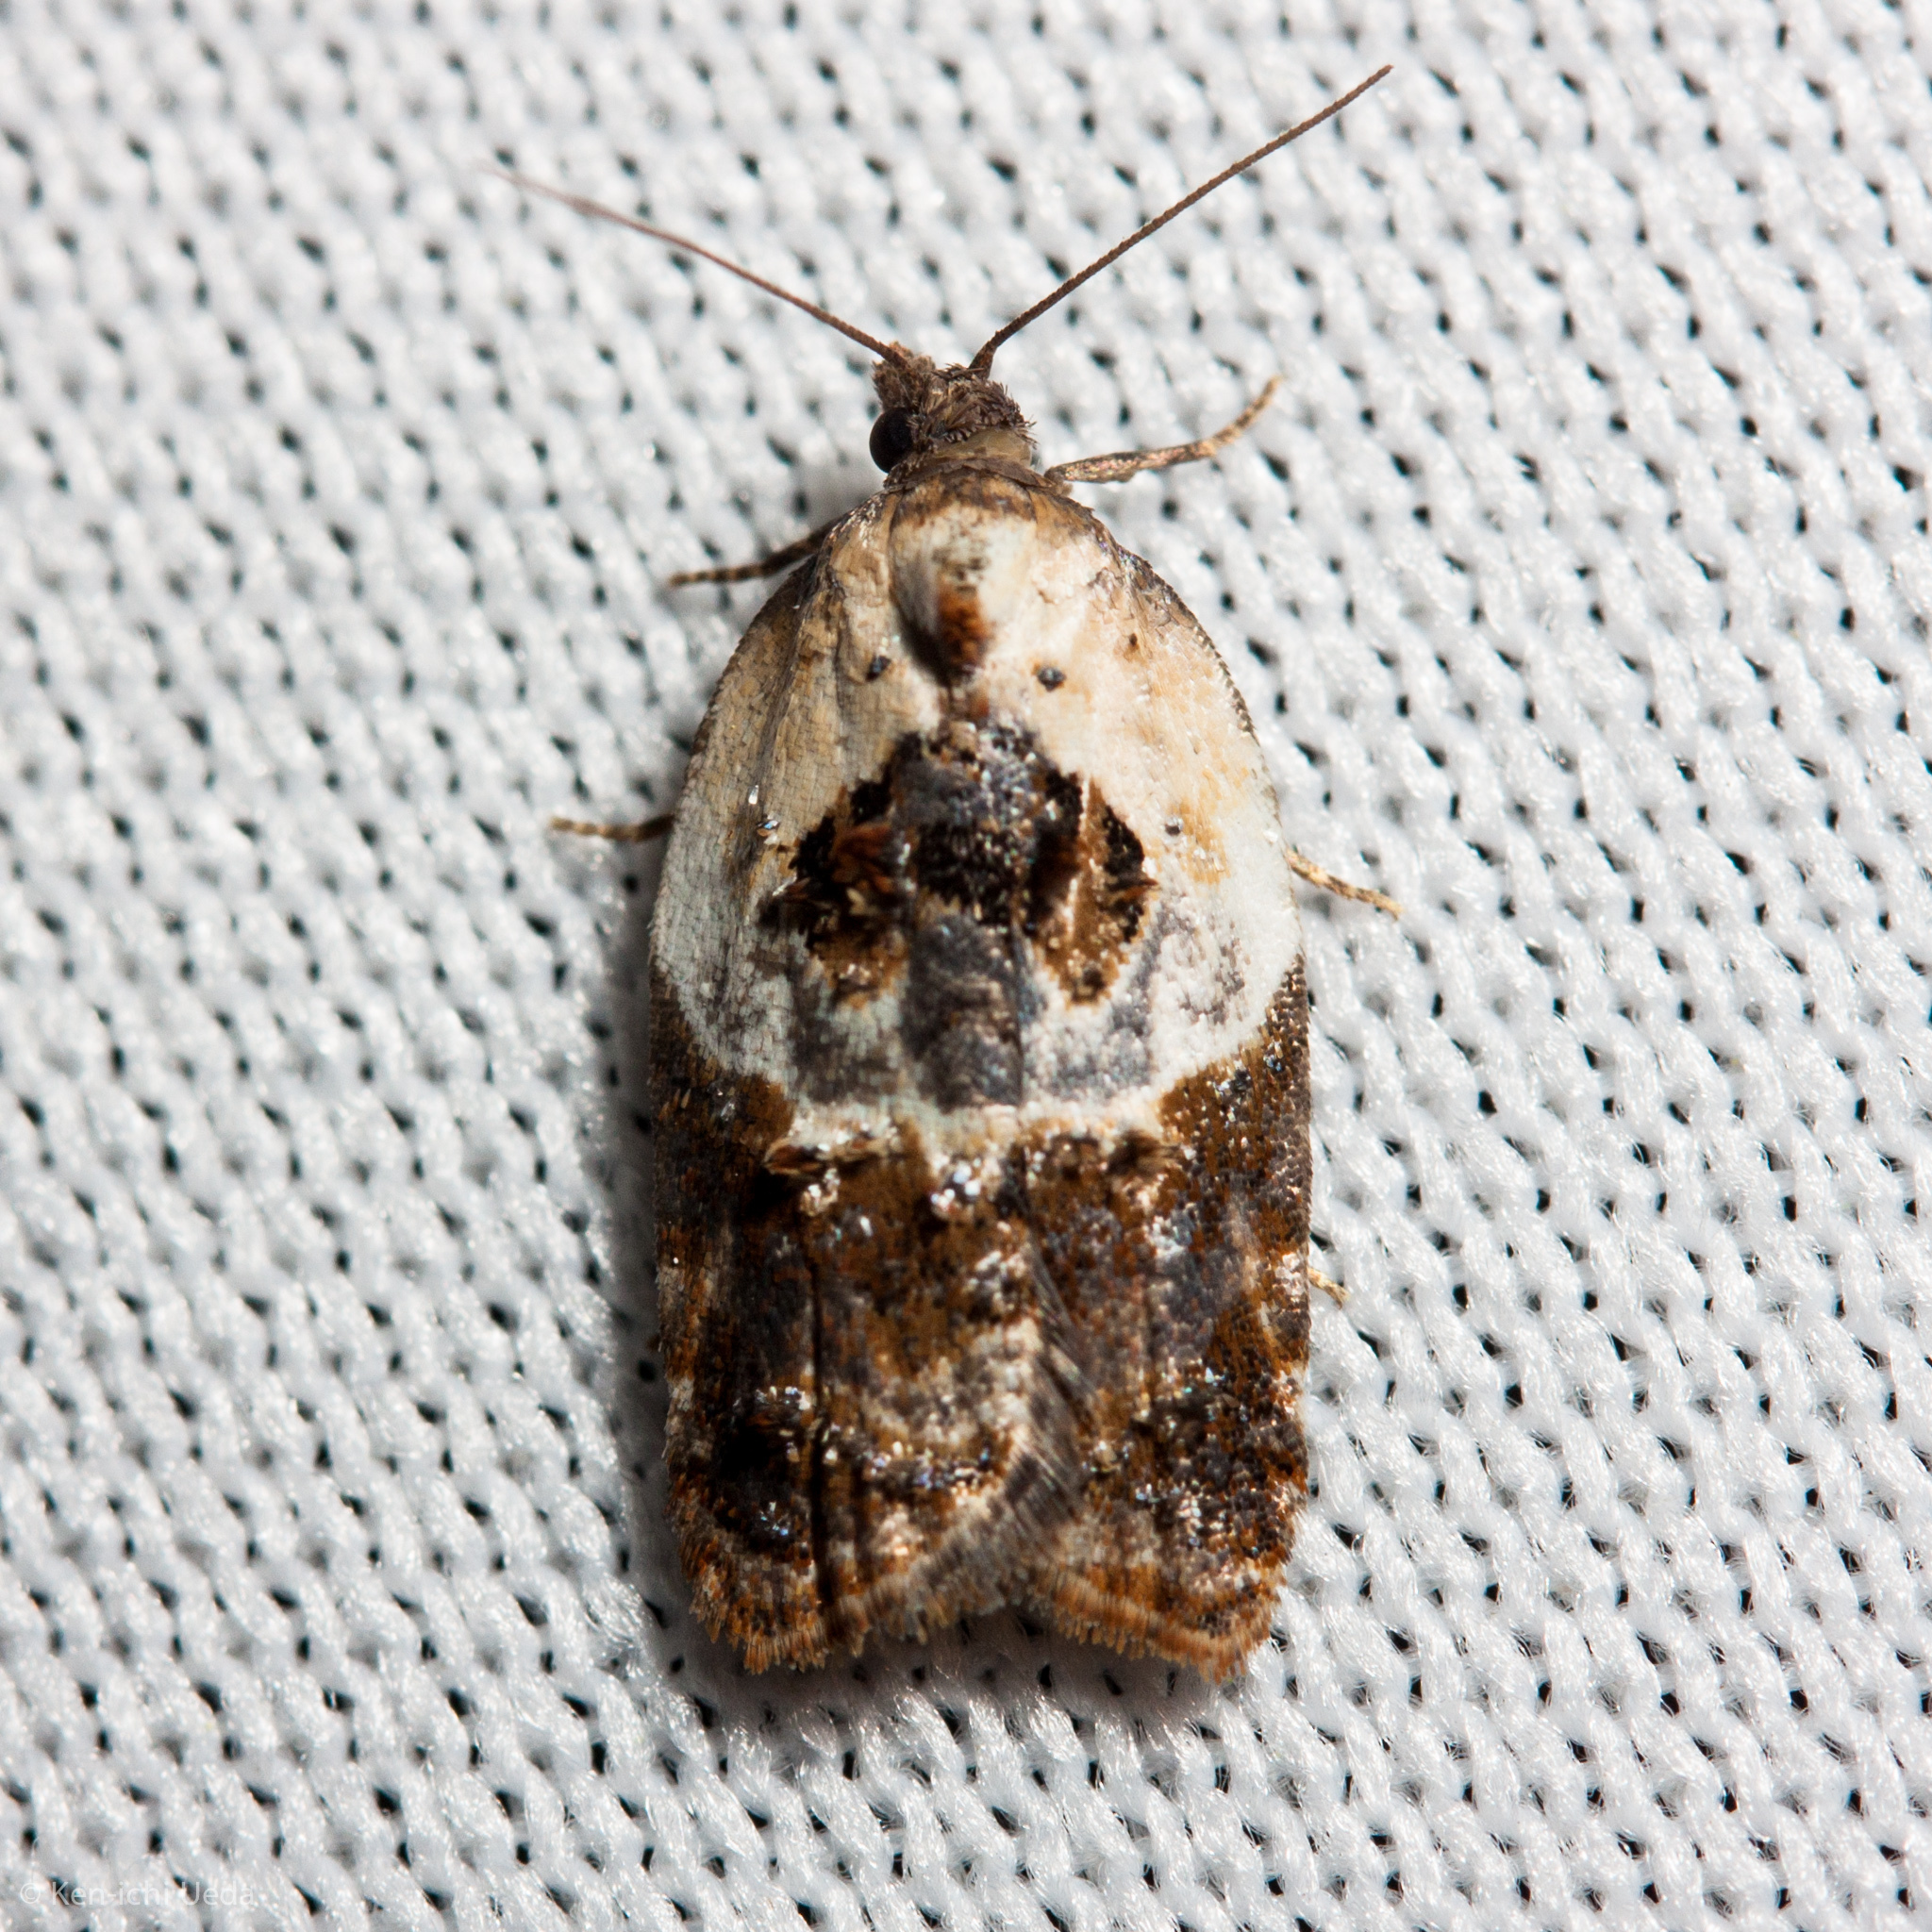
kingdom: Animalia
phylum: Arthropoda
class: Insecta
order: Lepidoptera
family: Tortricidae
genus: Acleris
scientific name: Acleris variegana
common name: Garden rose tortrix
